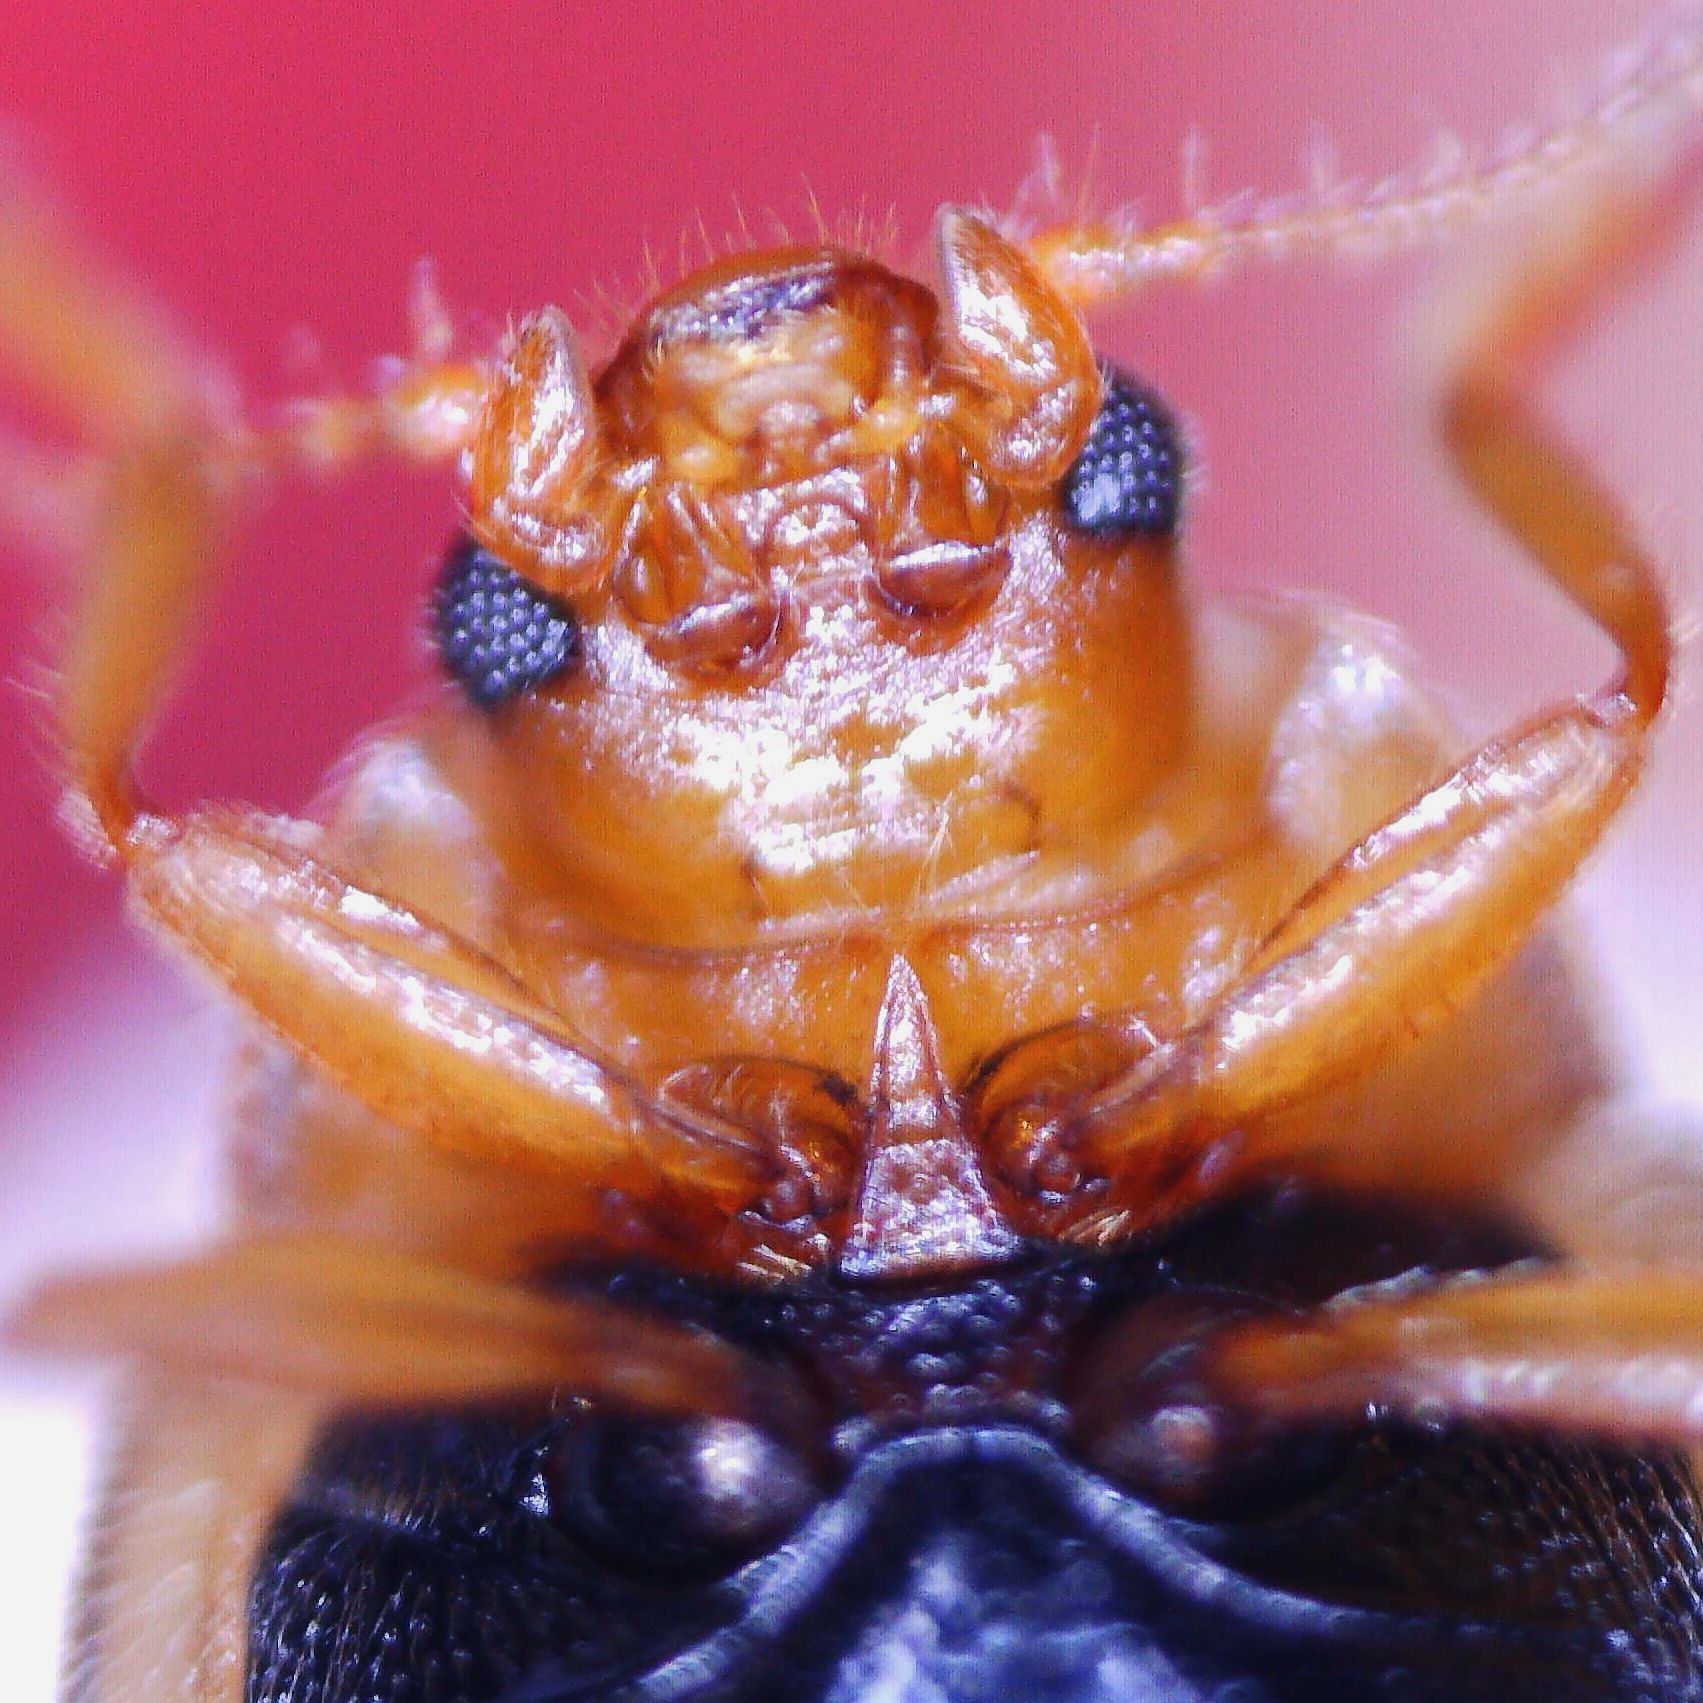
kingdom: Animalia
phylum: Arthropoda
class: Insecta
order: Coleoptera
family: Coccinellidae
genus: Rhyzobius
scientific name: Rhyzobius litura
